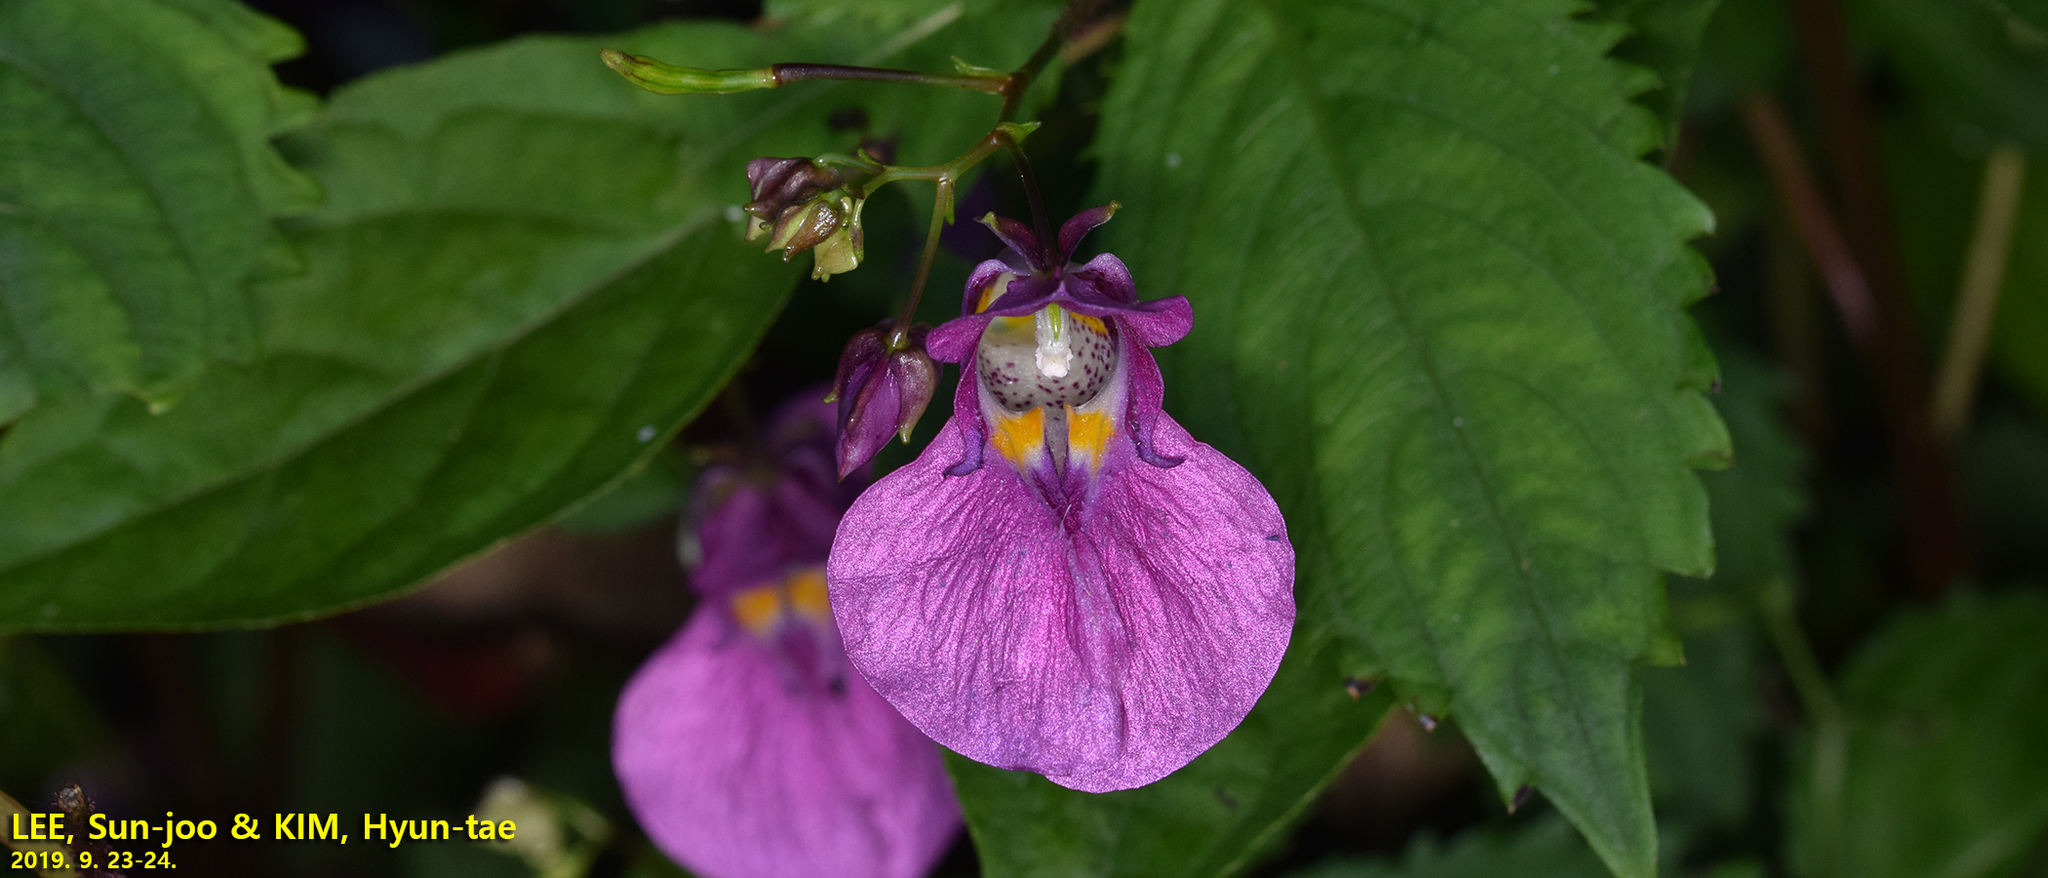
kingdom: Plantae
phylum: Tracheophyta
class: Magnoliopsida
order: Ericales
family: Balsaminaceae
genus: Impatiens
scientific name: Impatiens textorii
